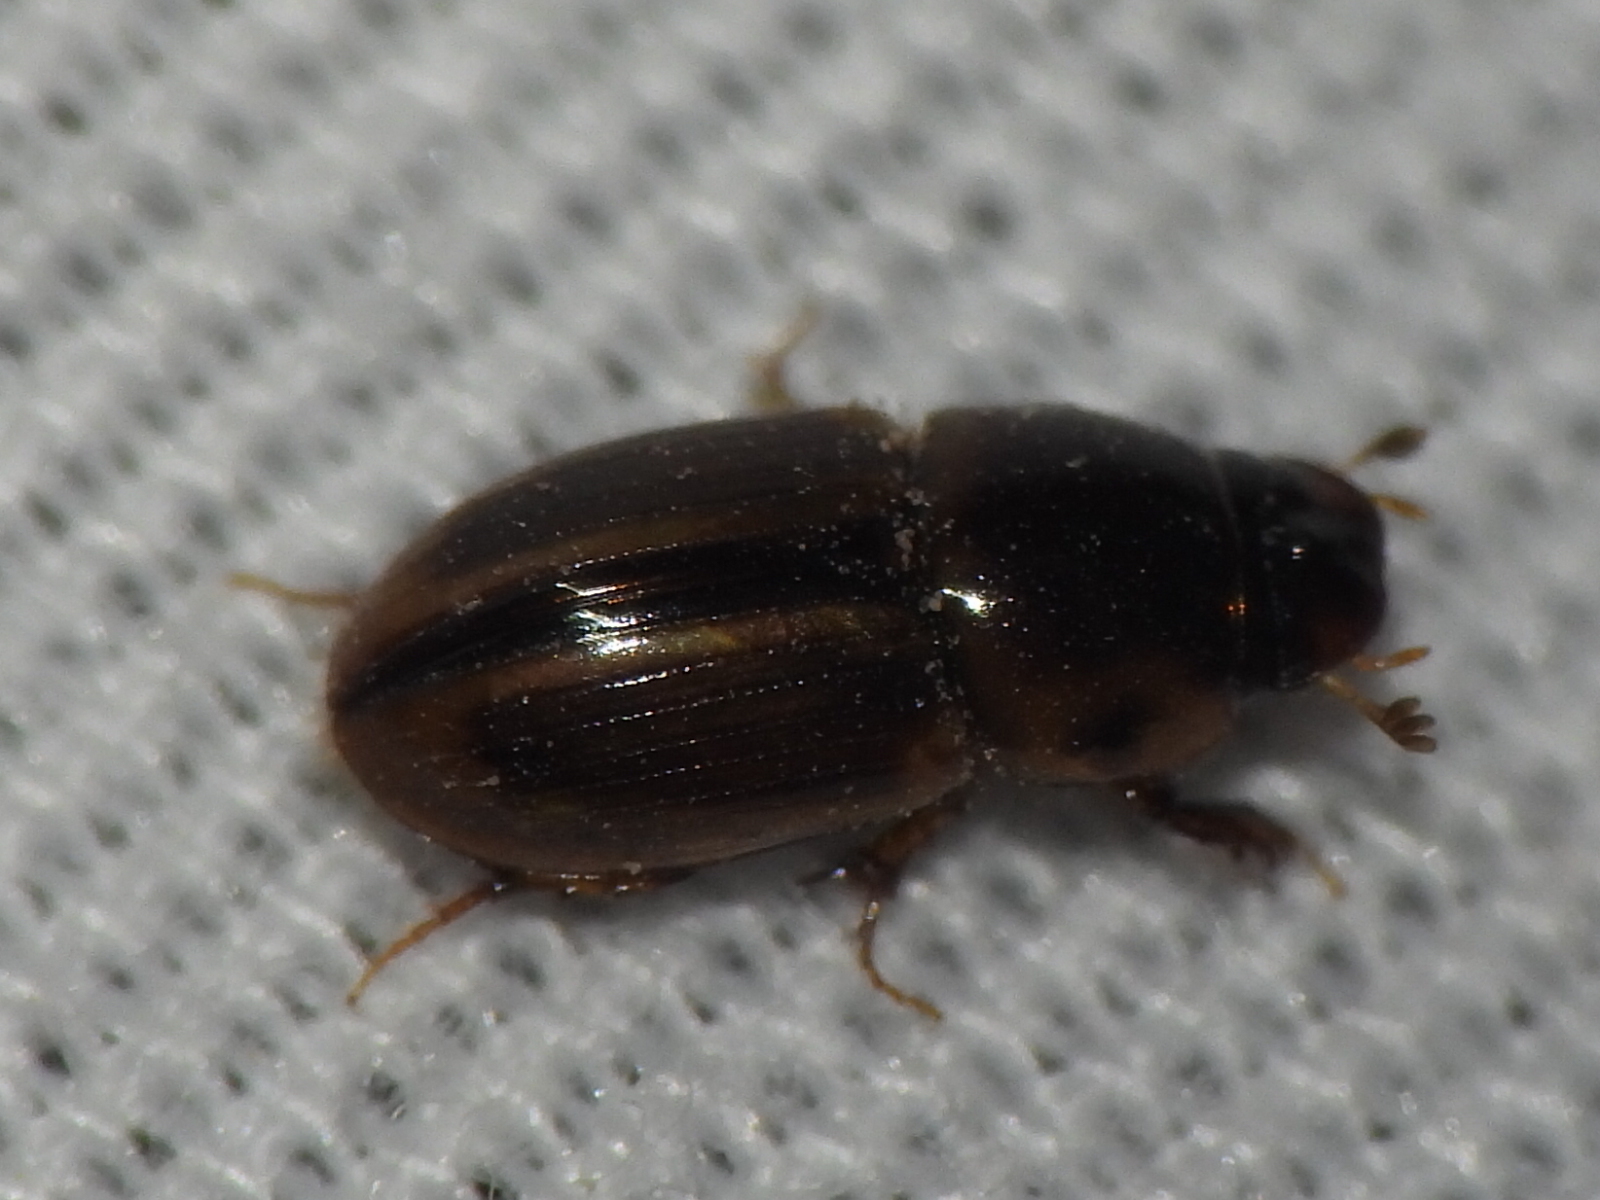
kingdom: Animalia
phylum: Arthropoda
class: Insecta
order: Coleoptera
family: Scarabaeidae
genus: Labarrus
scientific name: Labarrus lividus
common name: Scarab beetle
